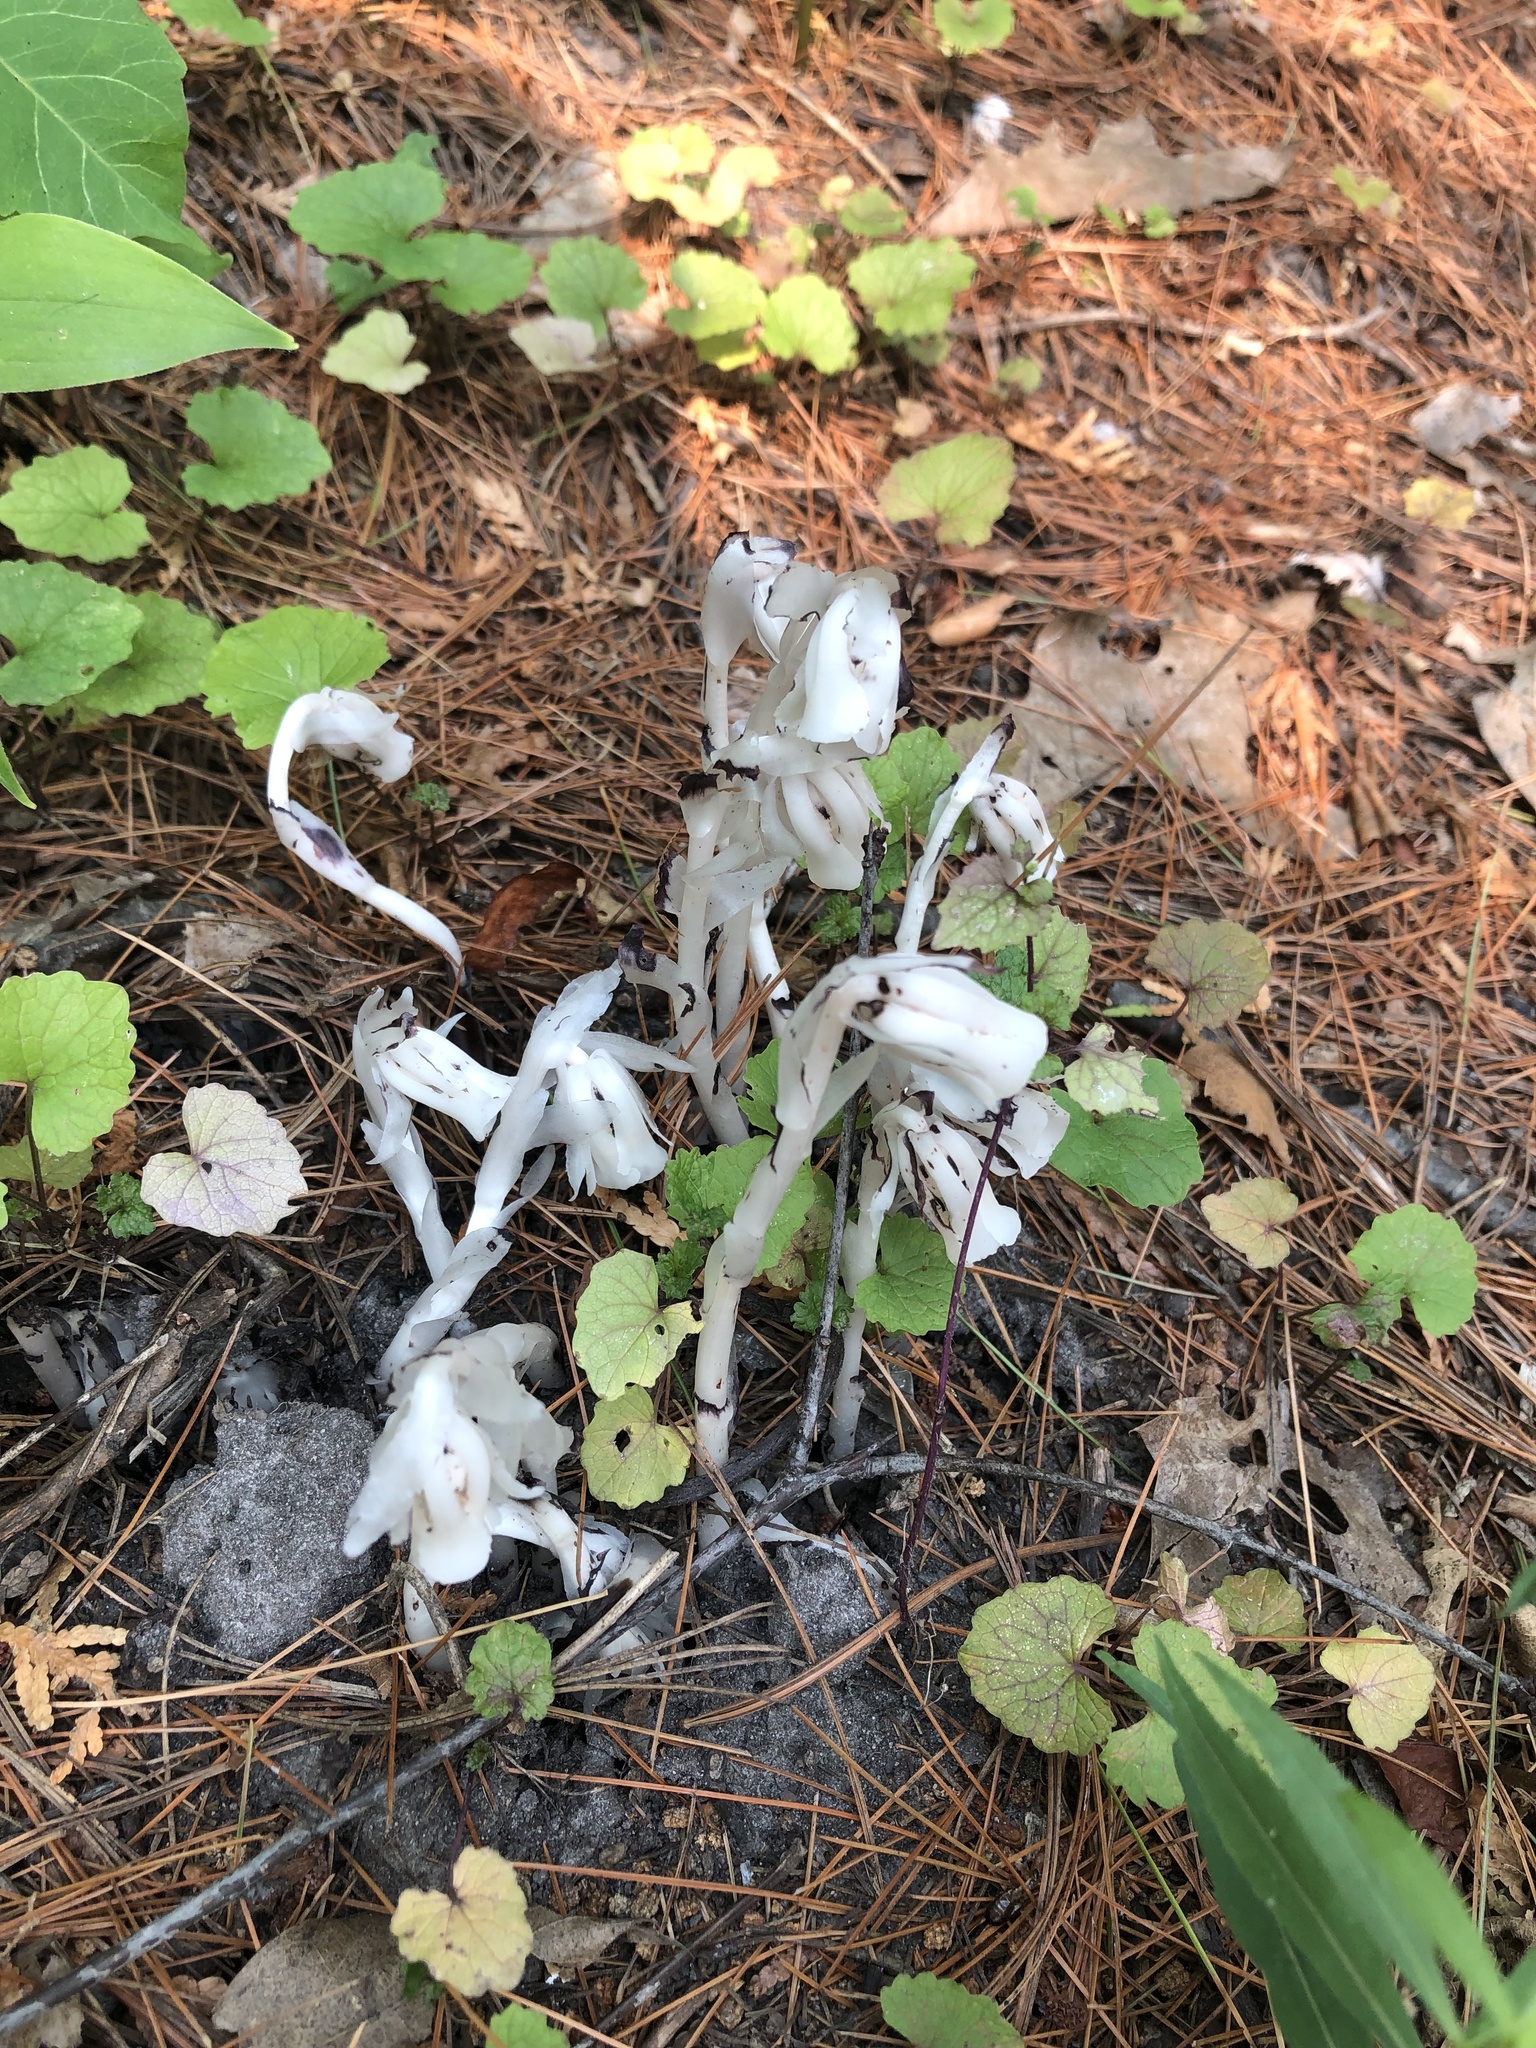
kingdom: Plantae
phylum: Tracheophyta
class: Magnoliopsida
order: Ericales
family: Ericaceae
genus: Monotropa
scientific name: Monotropa uniflora
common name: Convulsion root
